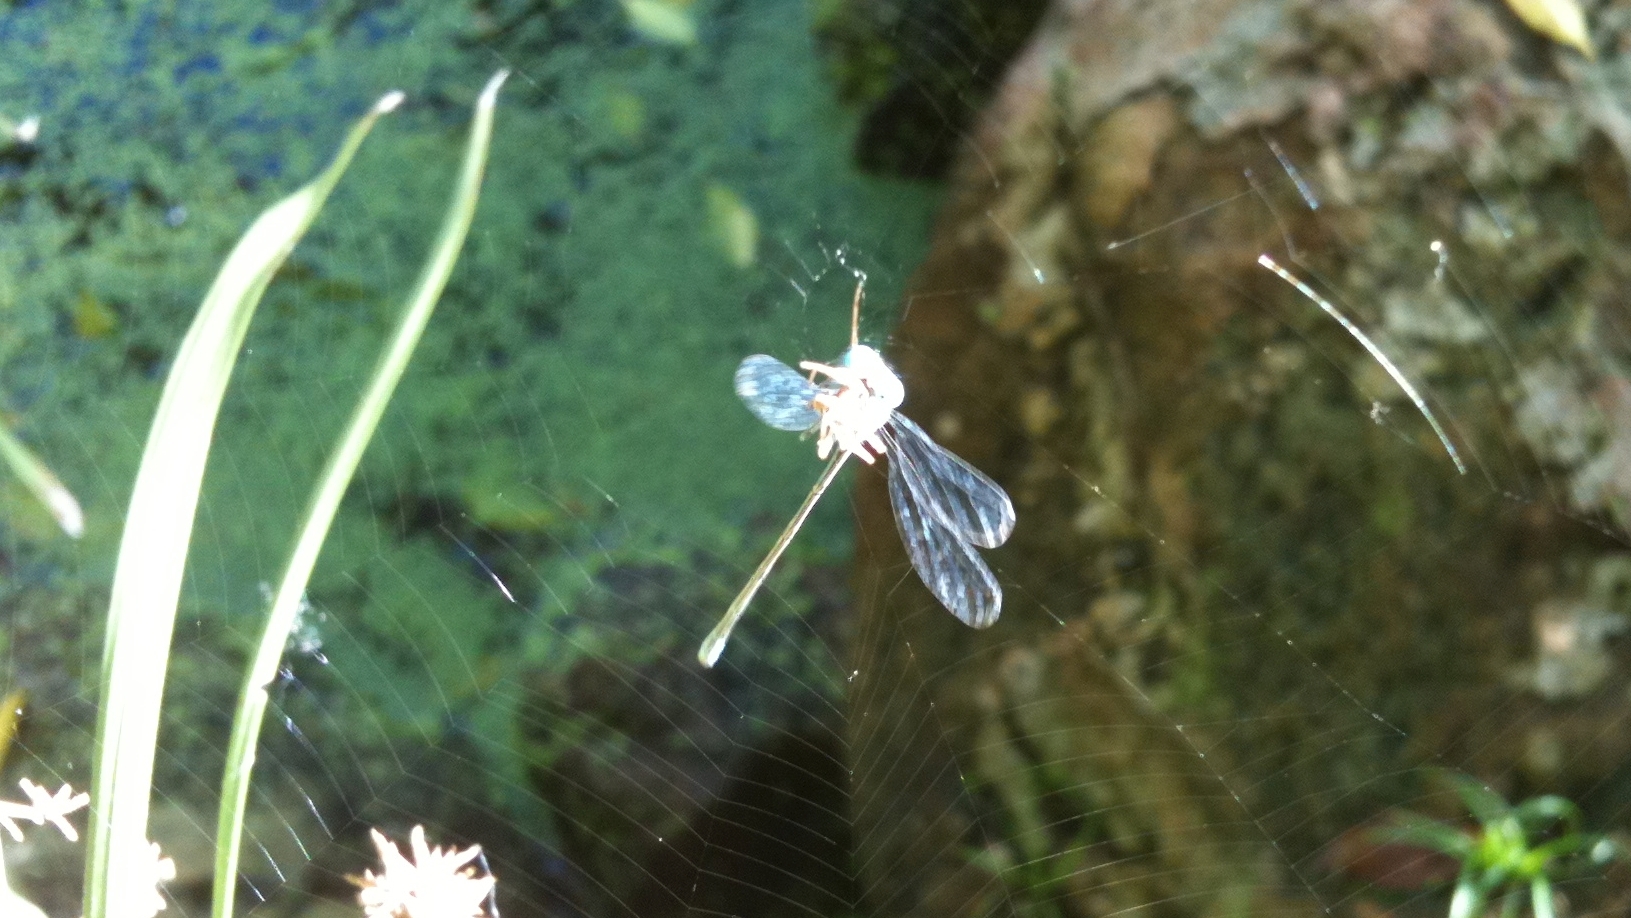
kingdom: Animalia
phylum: Arthropoda
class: Insecta
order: Odonata
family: Coenagrionidae
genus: Pseudagrion
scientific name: Pseudagrion microcephalum
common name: Blue riverdamsel
